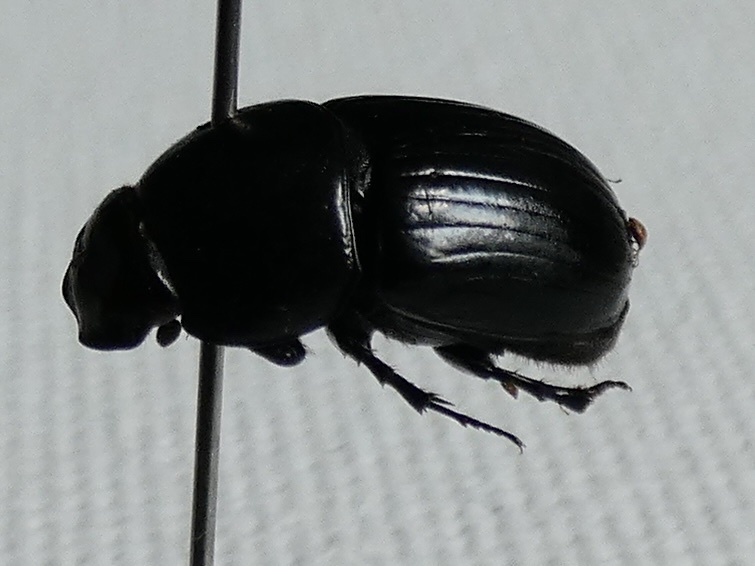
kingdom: Animalia
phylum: Arthropoda
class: Insecta
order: Coleoptera
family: Scarabaeidae
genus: Teuchestes
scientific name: Teuchestes fossor
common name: Digger small dung beetle
